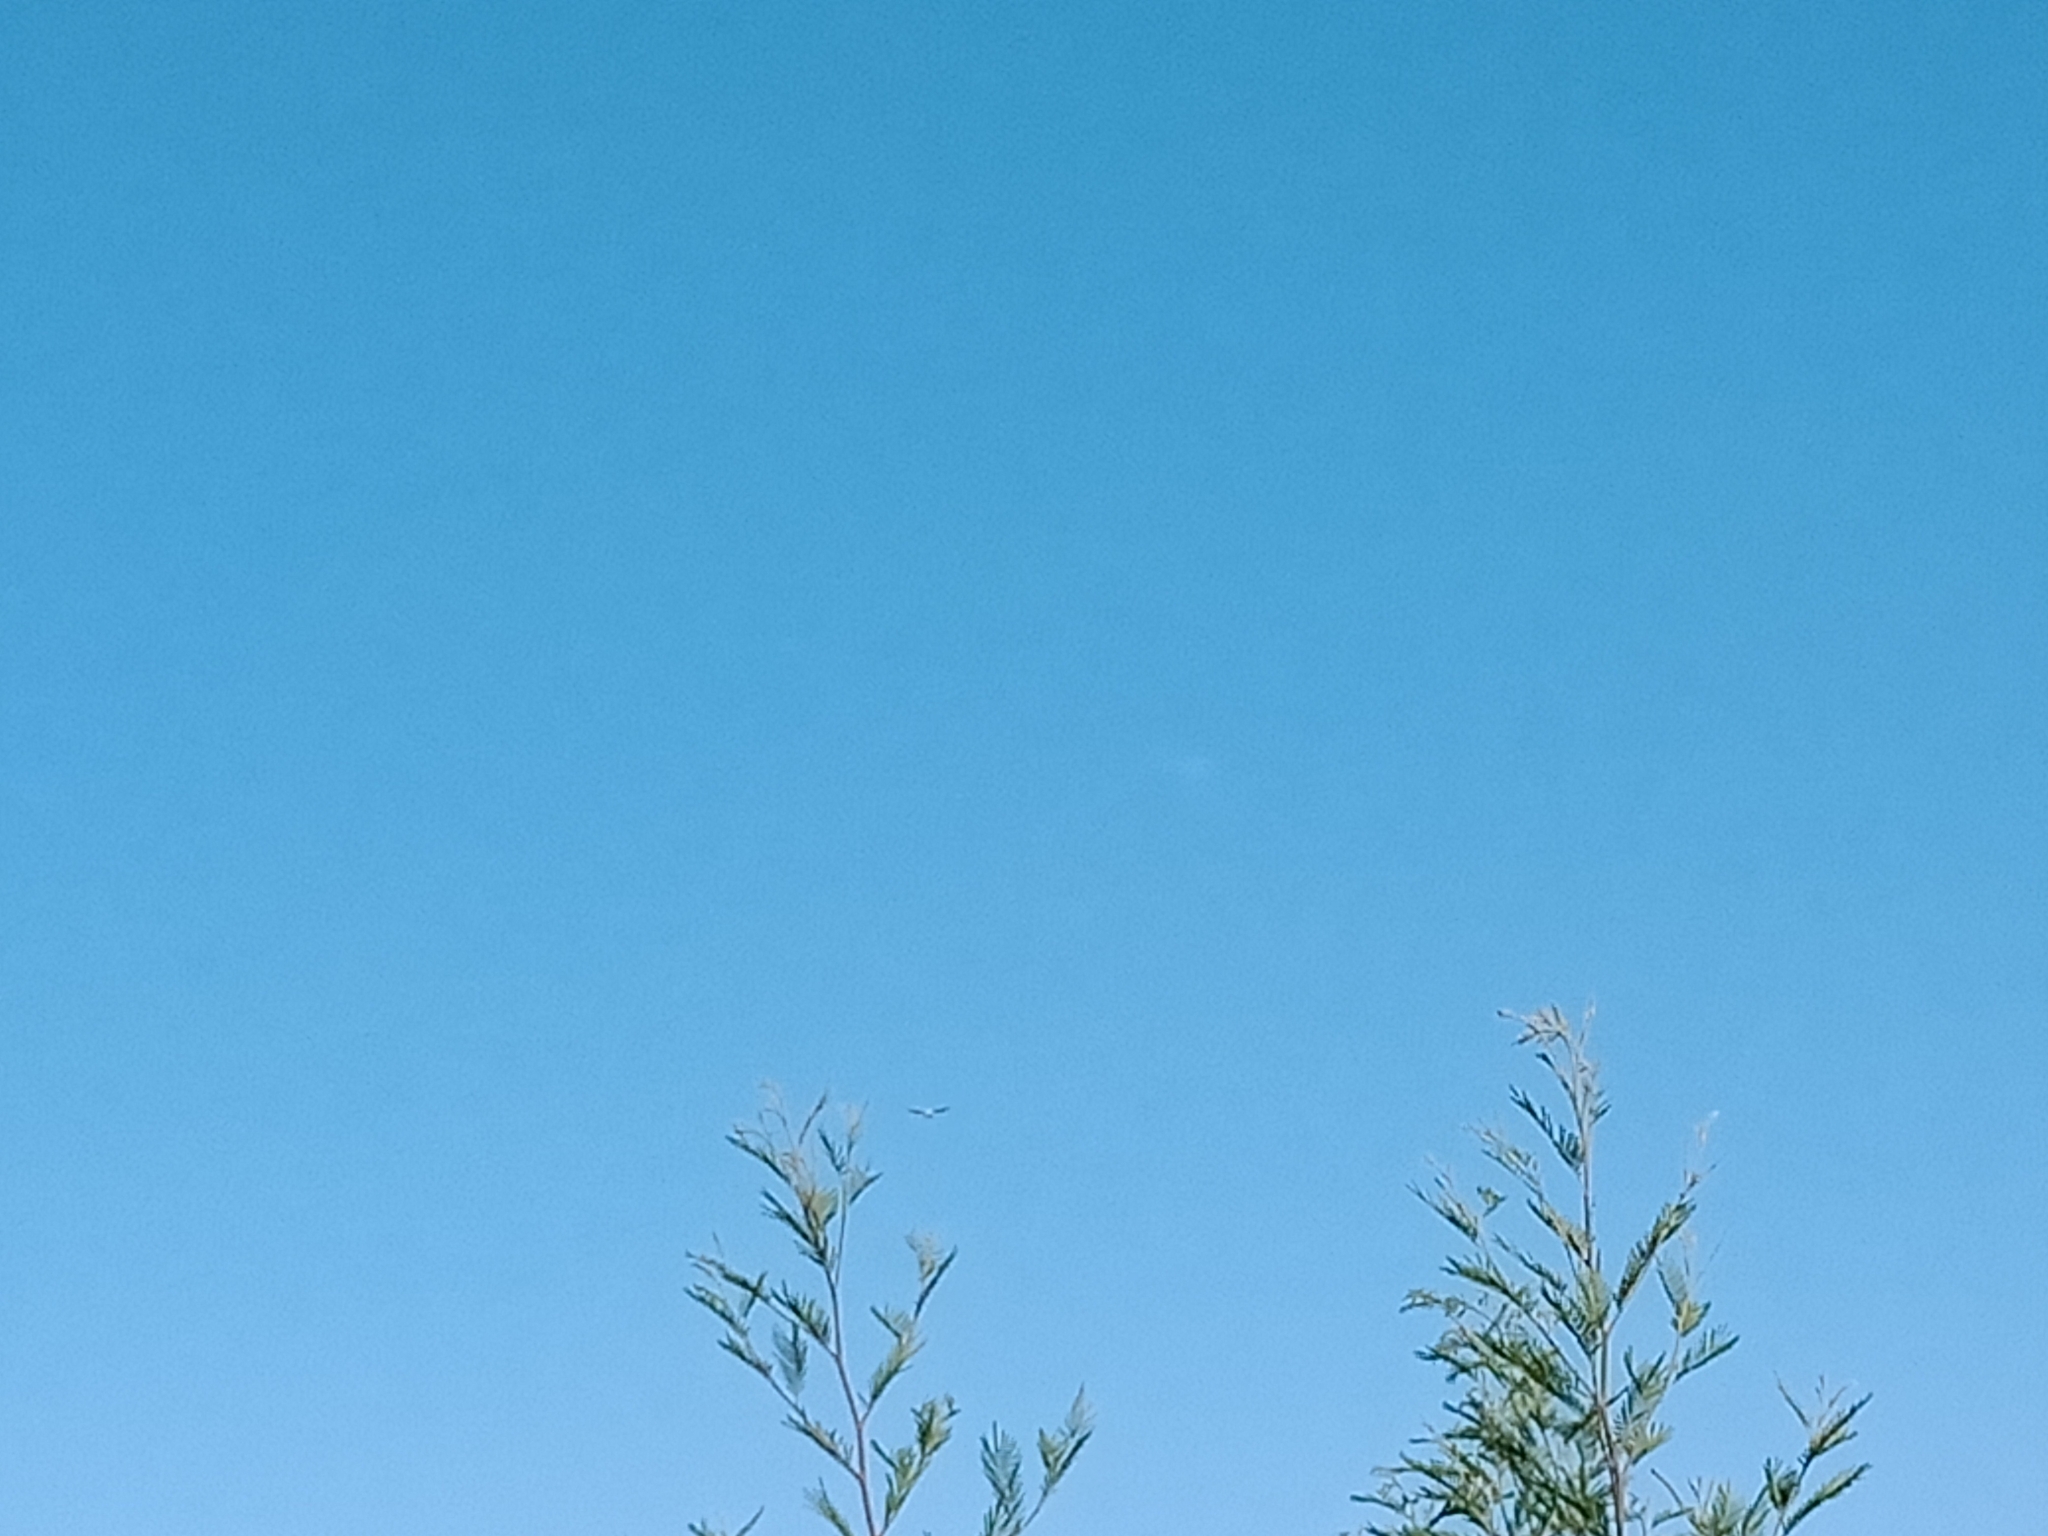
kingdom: Animalia
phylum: Chordata
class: Aves
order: Accipitriformes
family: Accipitridae
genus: Elanus
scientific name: Elanus axillaris
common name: Black-shouldered kite
